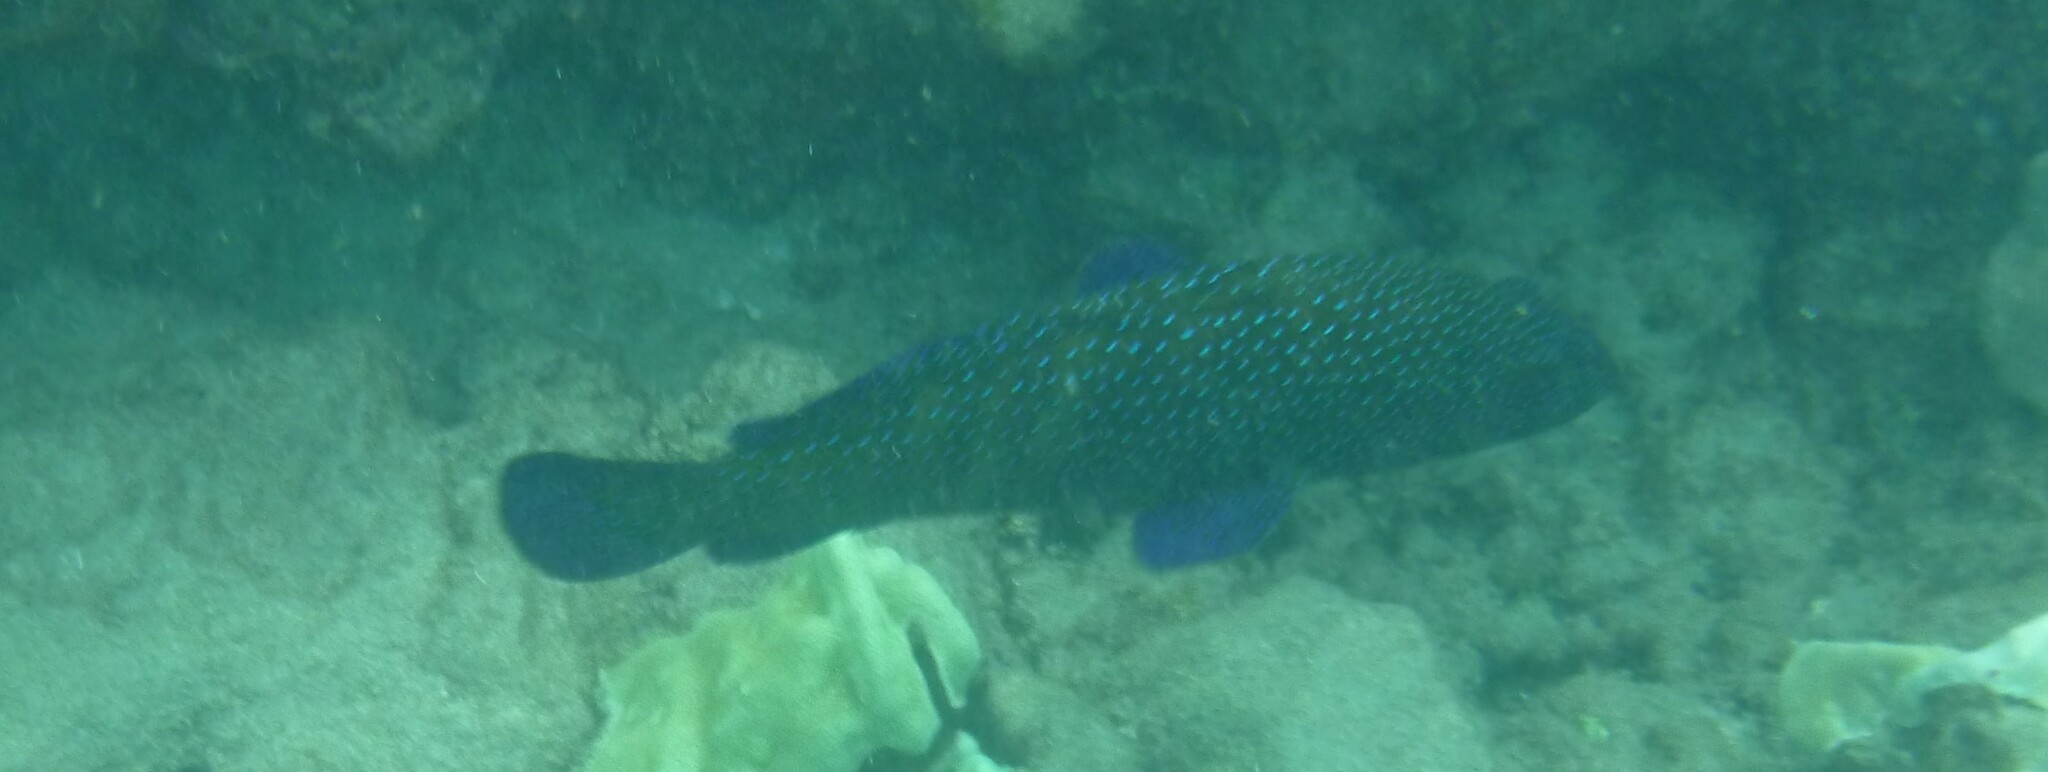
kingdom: Animalia
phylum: Chordata
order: Perciformes
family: Serranidae
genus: Cephalopholis
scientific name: Cephalopholis argus
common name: Peacock grouper
